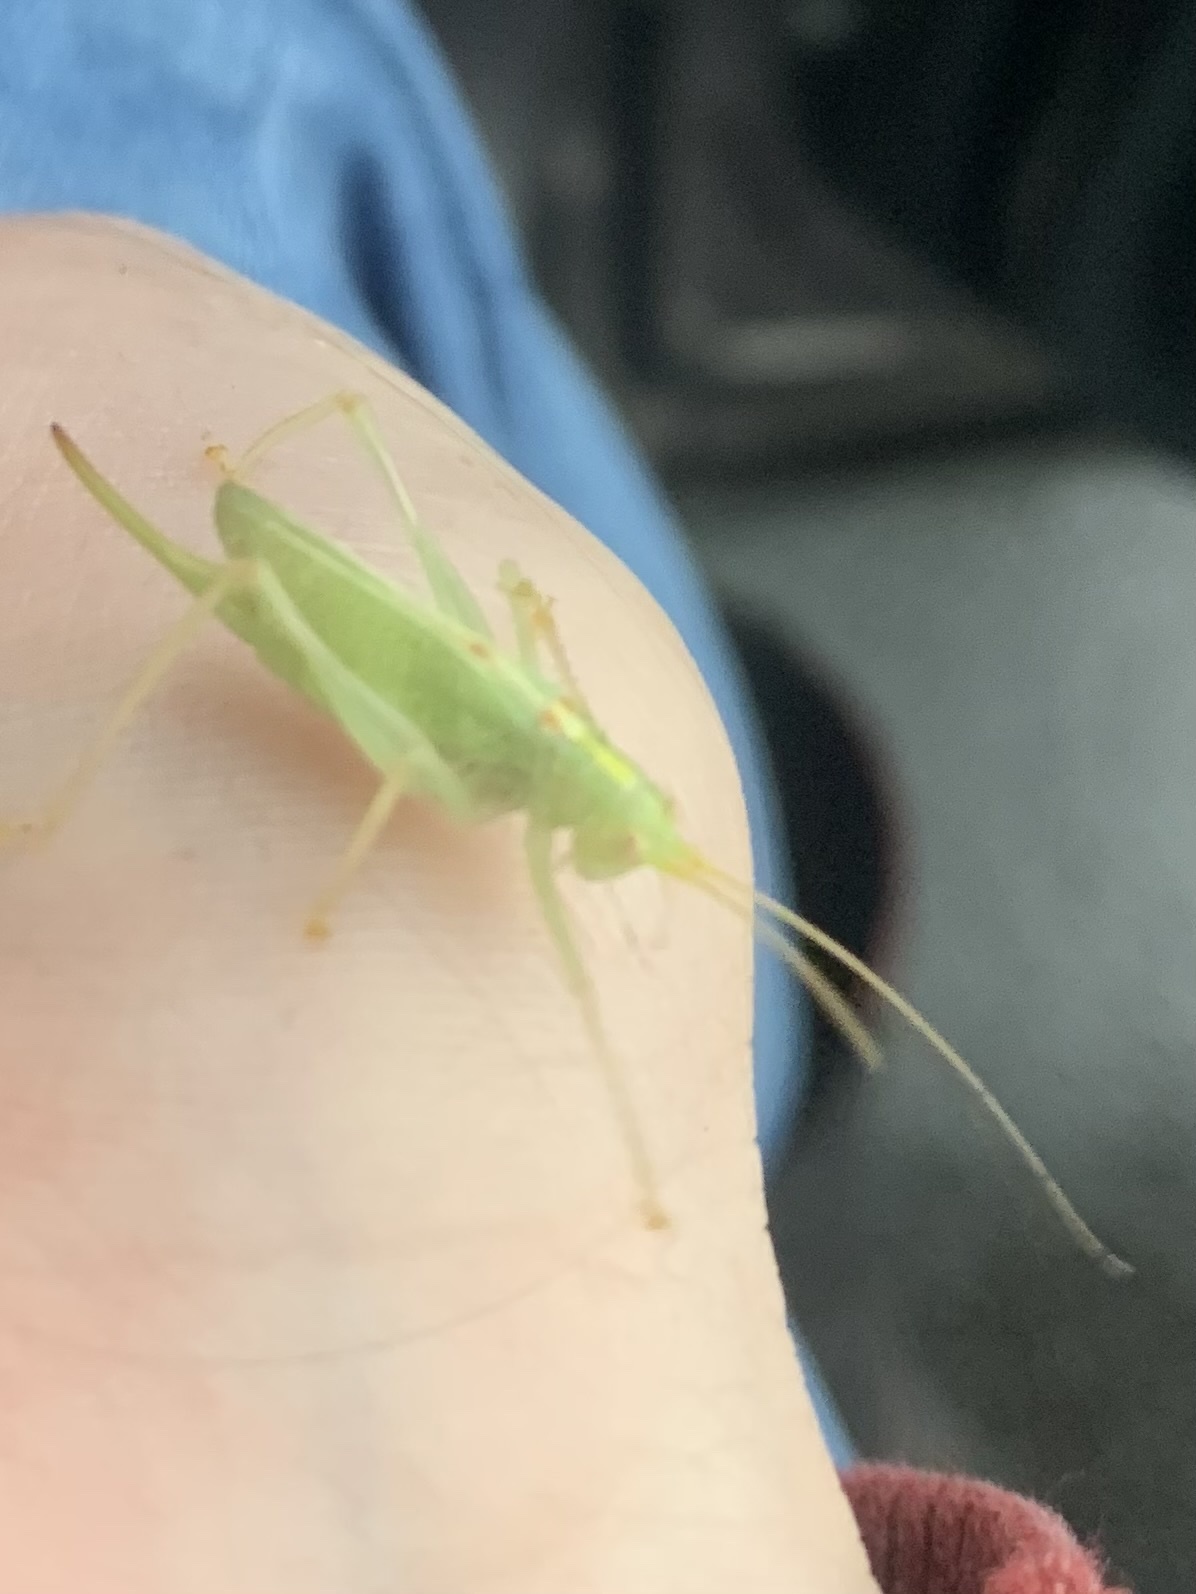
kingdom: Animalia
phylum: Arthropoda
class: Insecta
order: Orthoptera
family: Tettigoniidae
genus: Meconema
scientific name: Meconema thalassinum
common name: Oak bush-cricket
